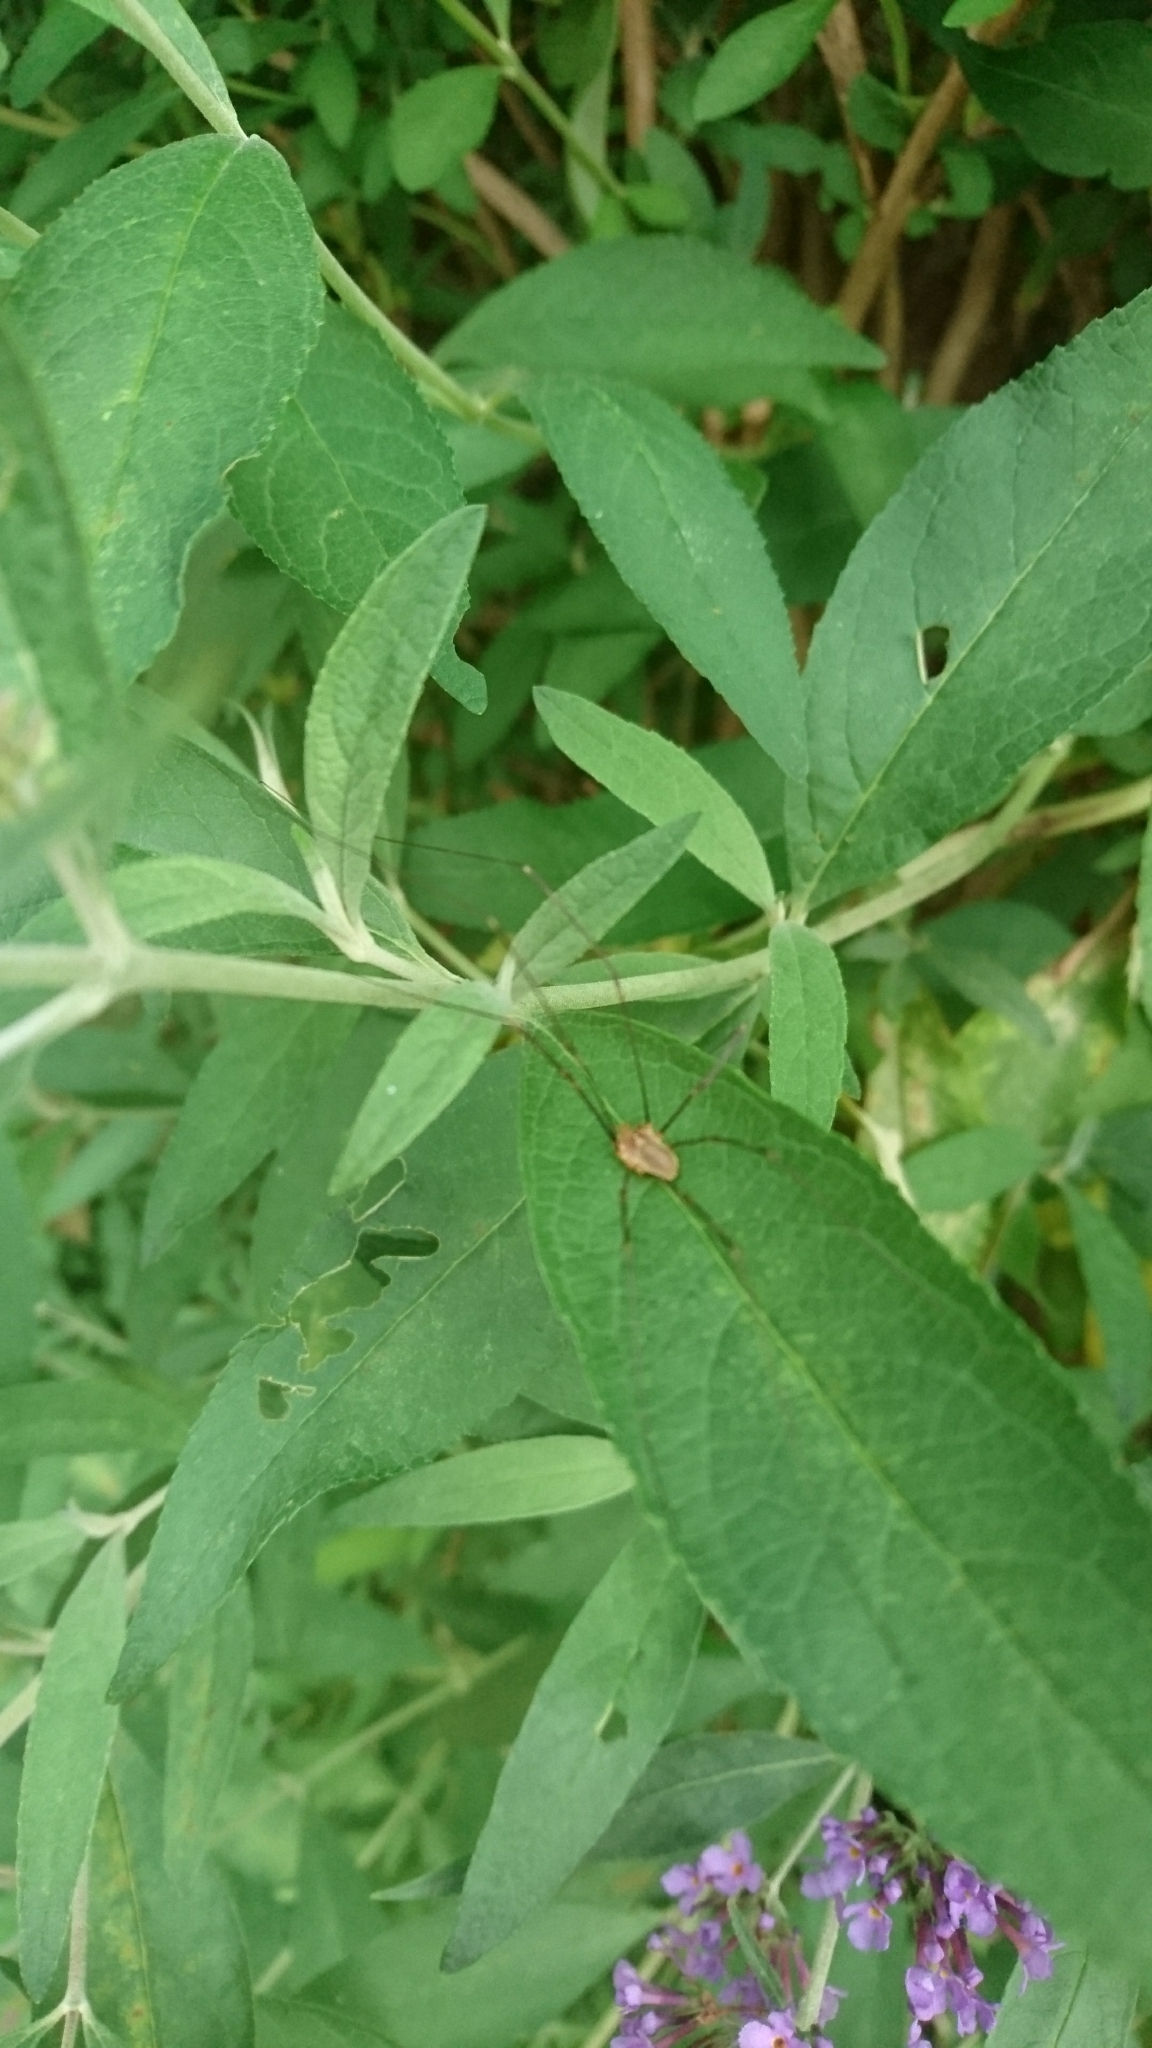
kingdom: Animalia
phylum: Arthropoda
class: Arachnida
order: Opiliones
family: Phalangiidae
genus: Opilio
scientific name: Opilio canestrinii
